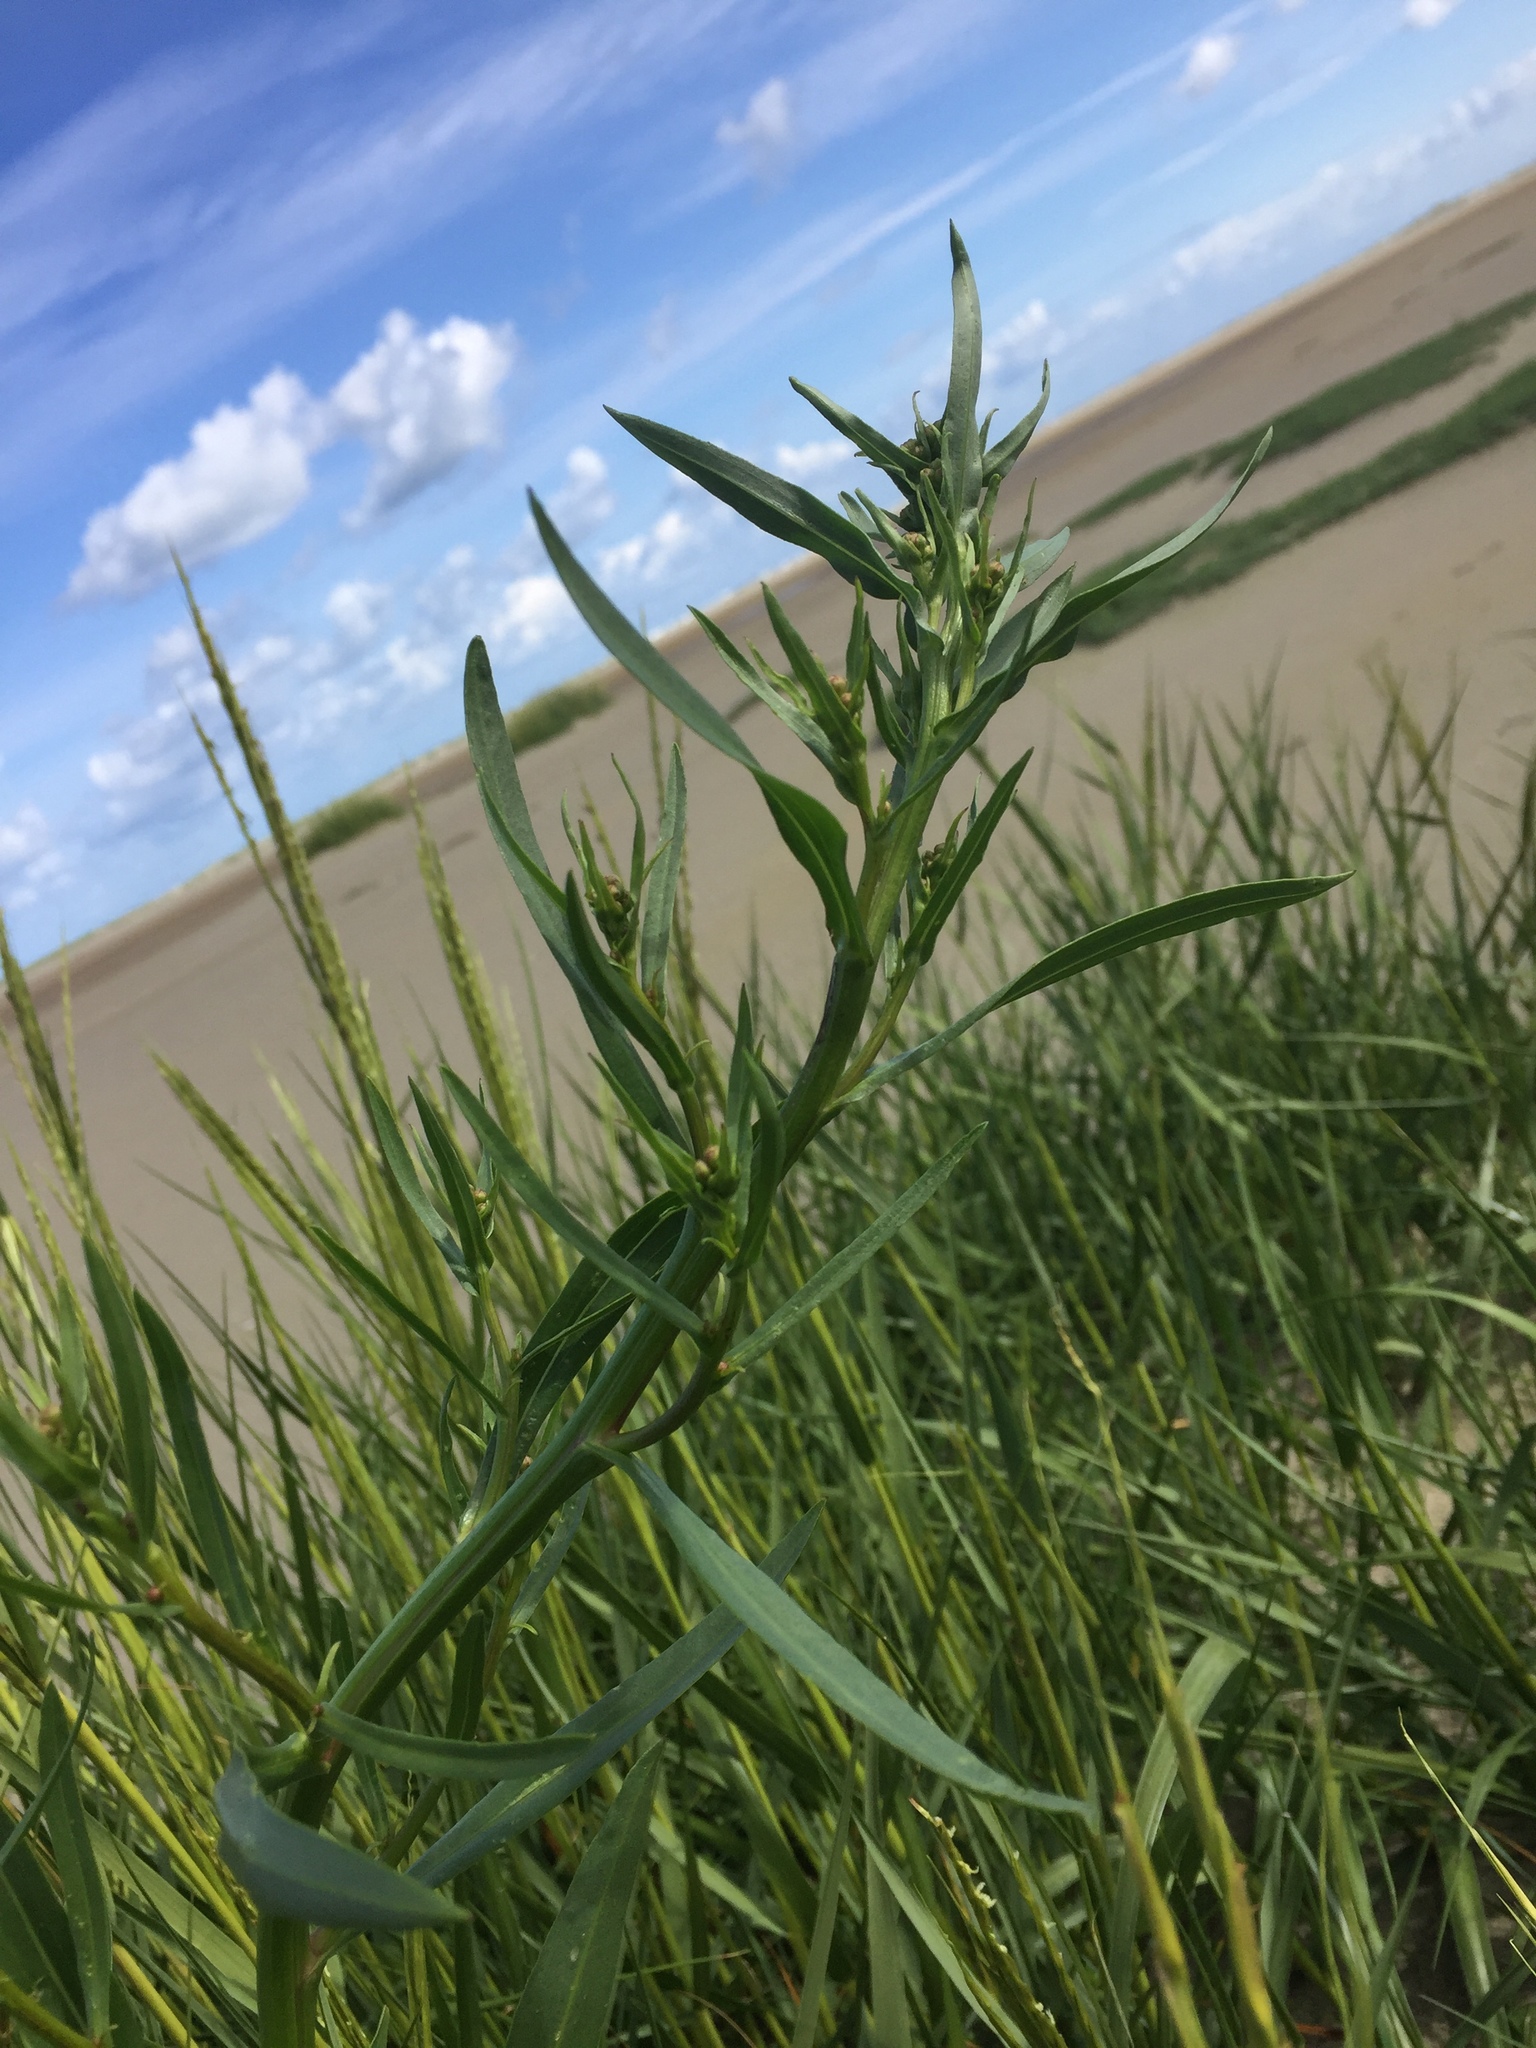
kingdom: Plantae
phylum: Tracheophyta
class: Magnoliopsida
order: Asterales
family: Asteraceae
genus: Tripolium
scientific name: Tripolium pannonicum
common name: Sea aster
